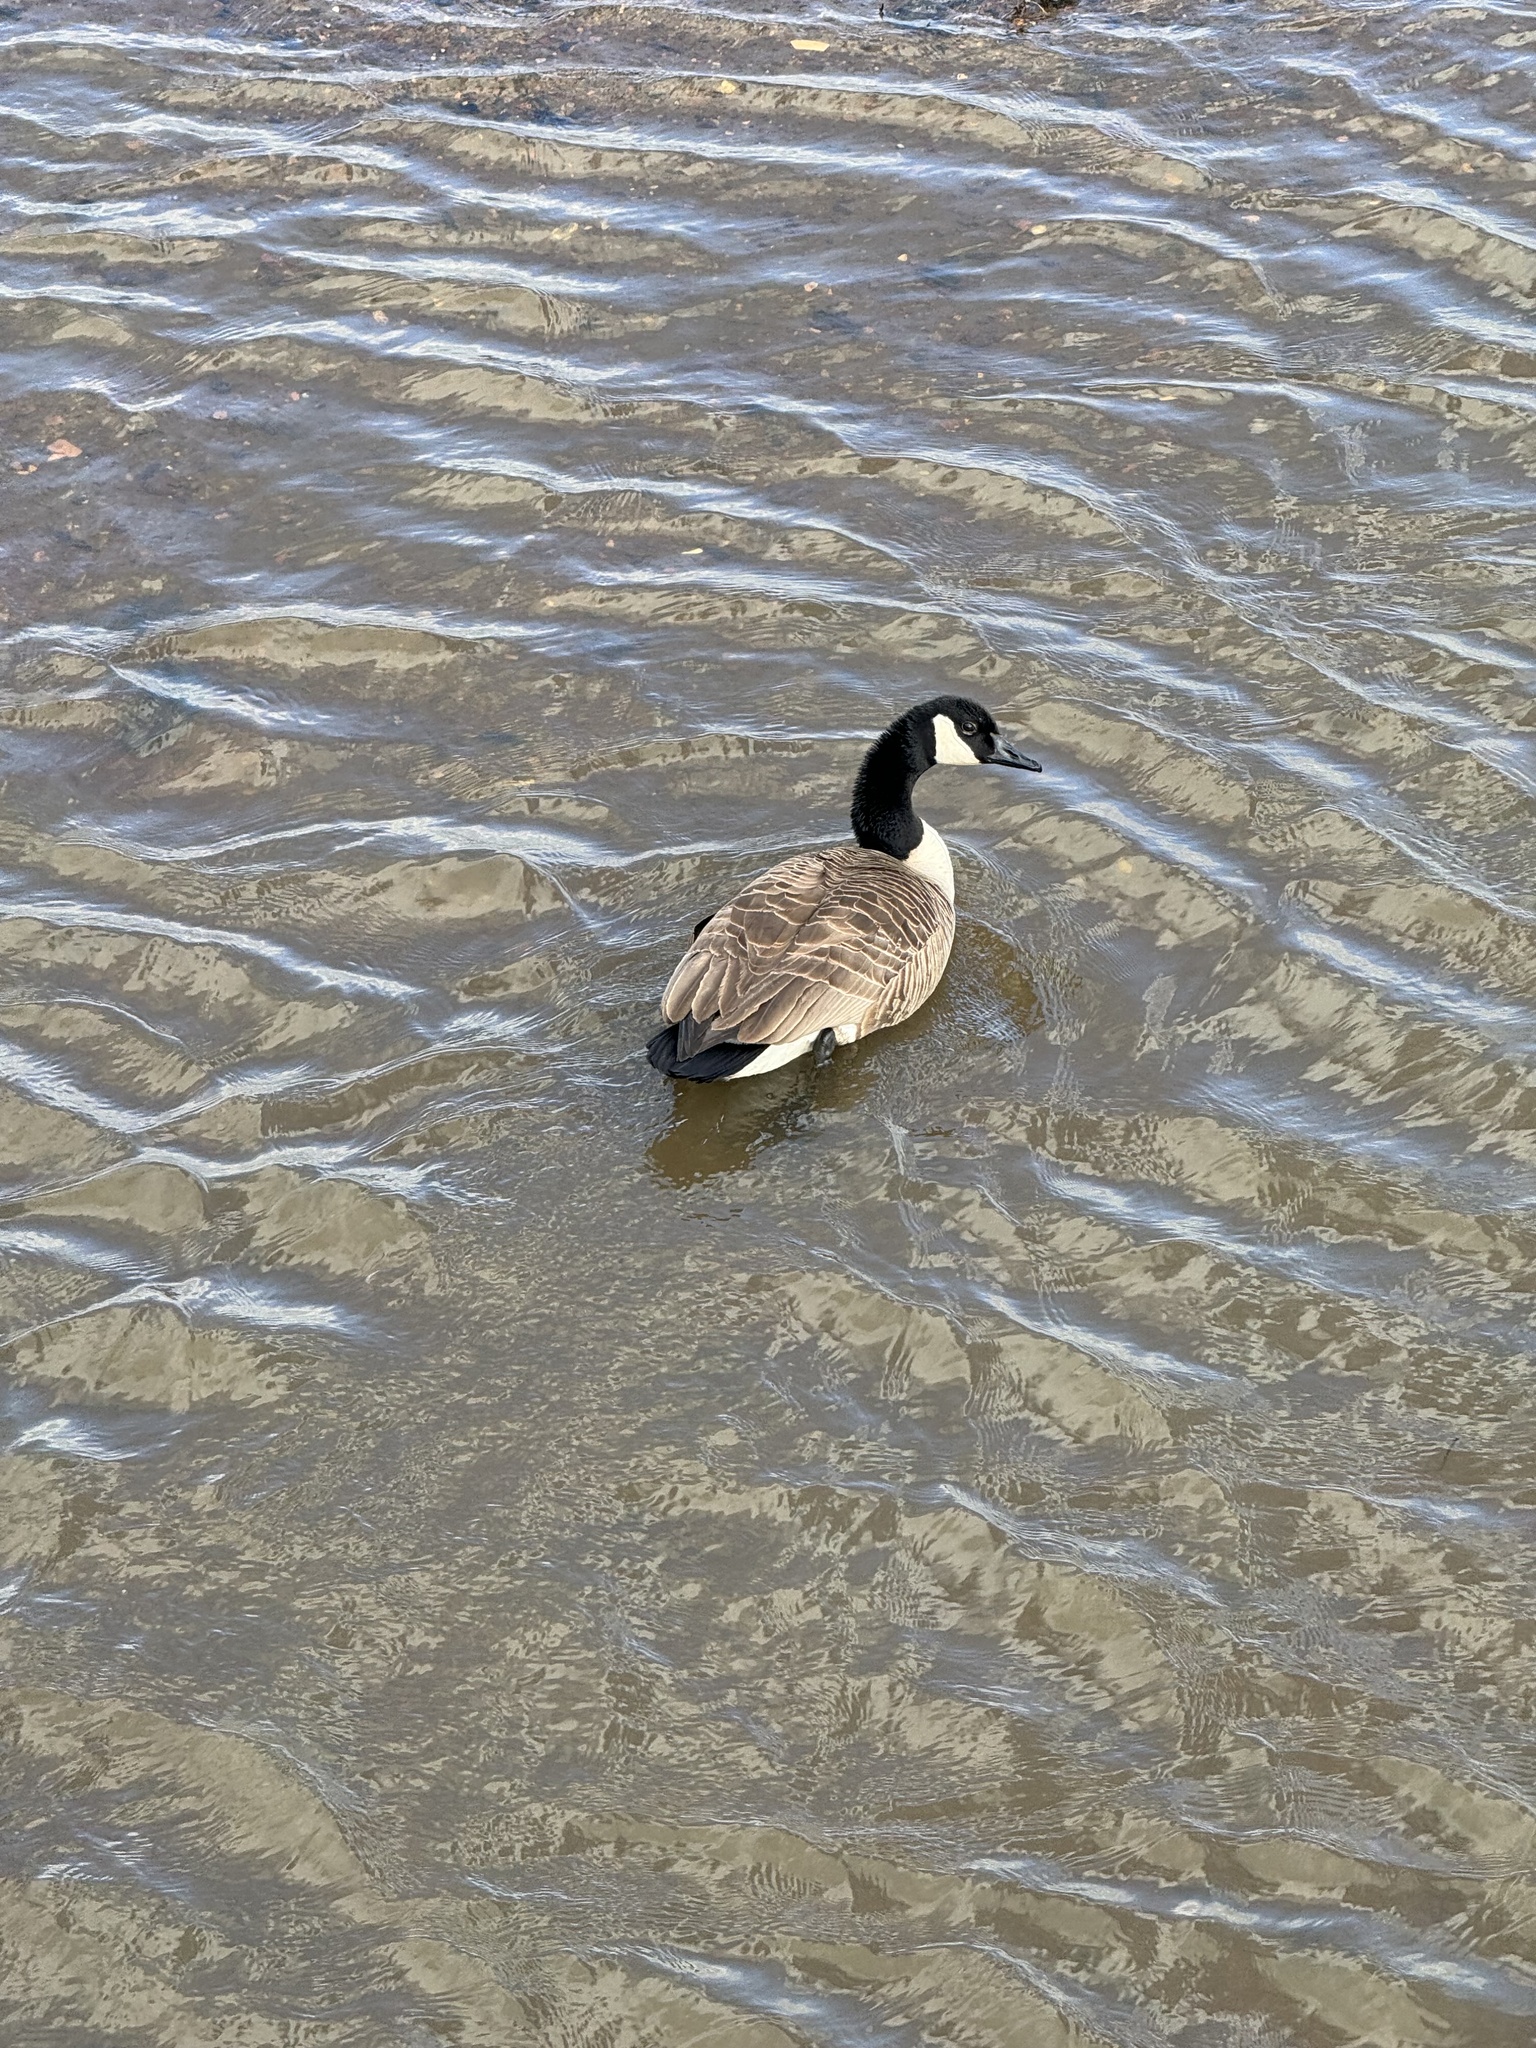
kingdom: Animalia
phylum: Chordata
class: Aves
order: Anseriformes
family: Anatidae
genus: Branta
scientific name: Branta canadensis
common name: Canada goose
